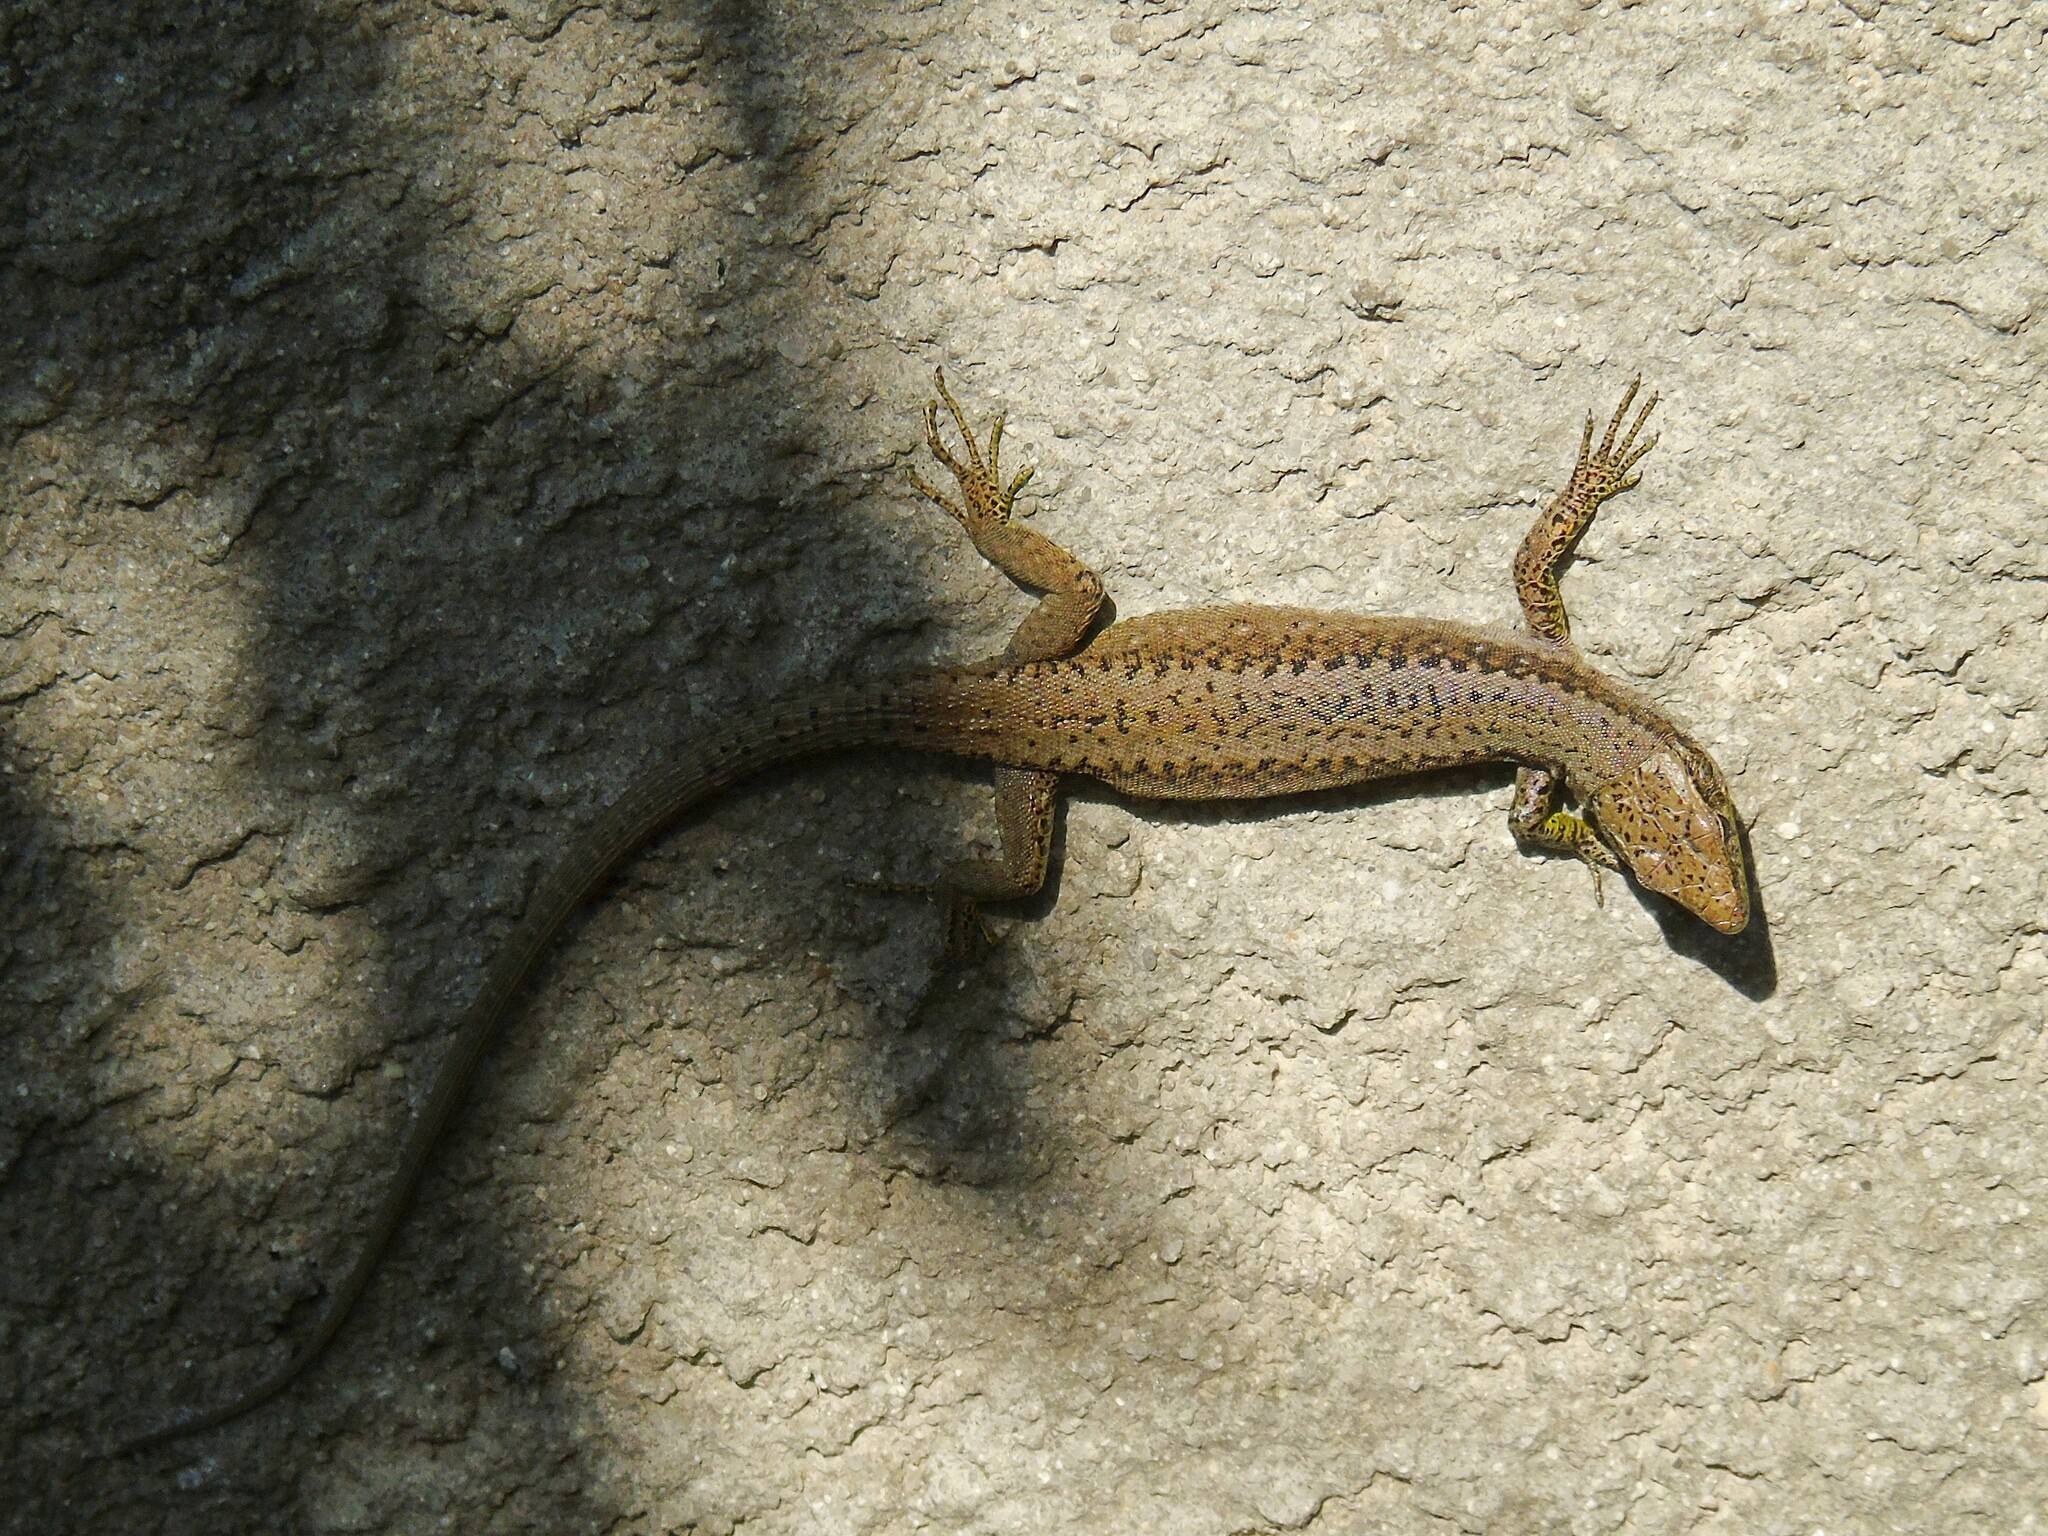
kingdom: Animalia
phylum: Chordata
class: Squamata
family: Lacertidae
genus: Darevskia
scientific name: Darevskia rudis
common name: Spiny-tailed lizard
